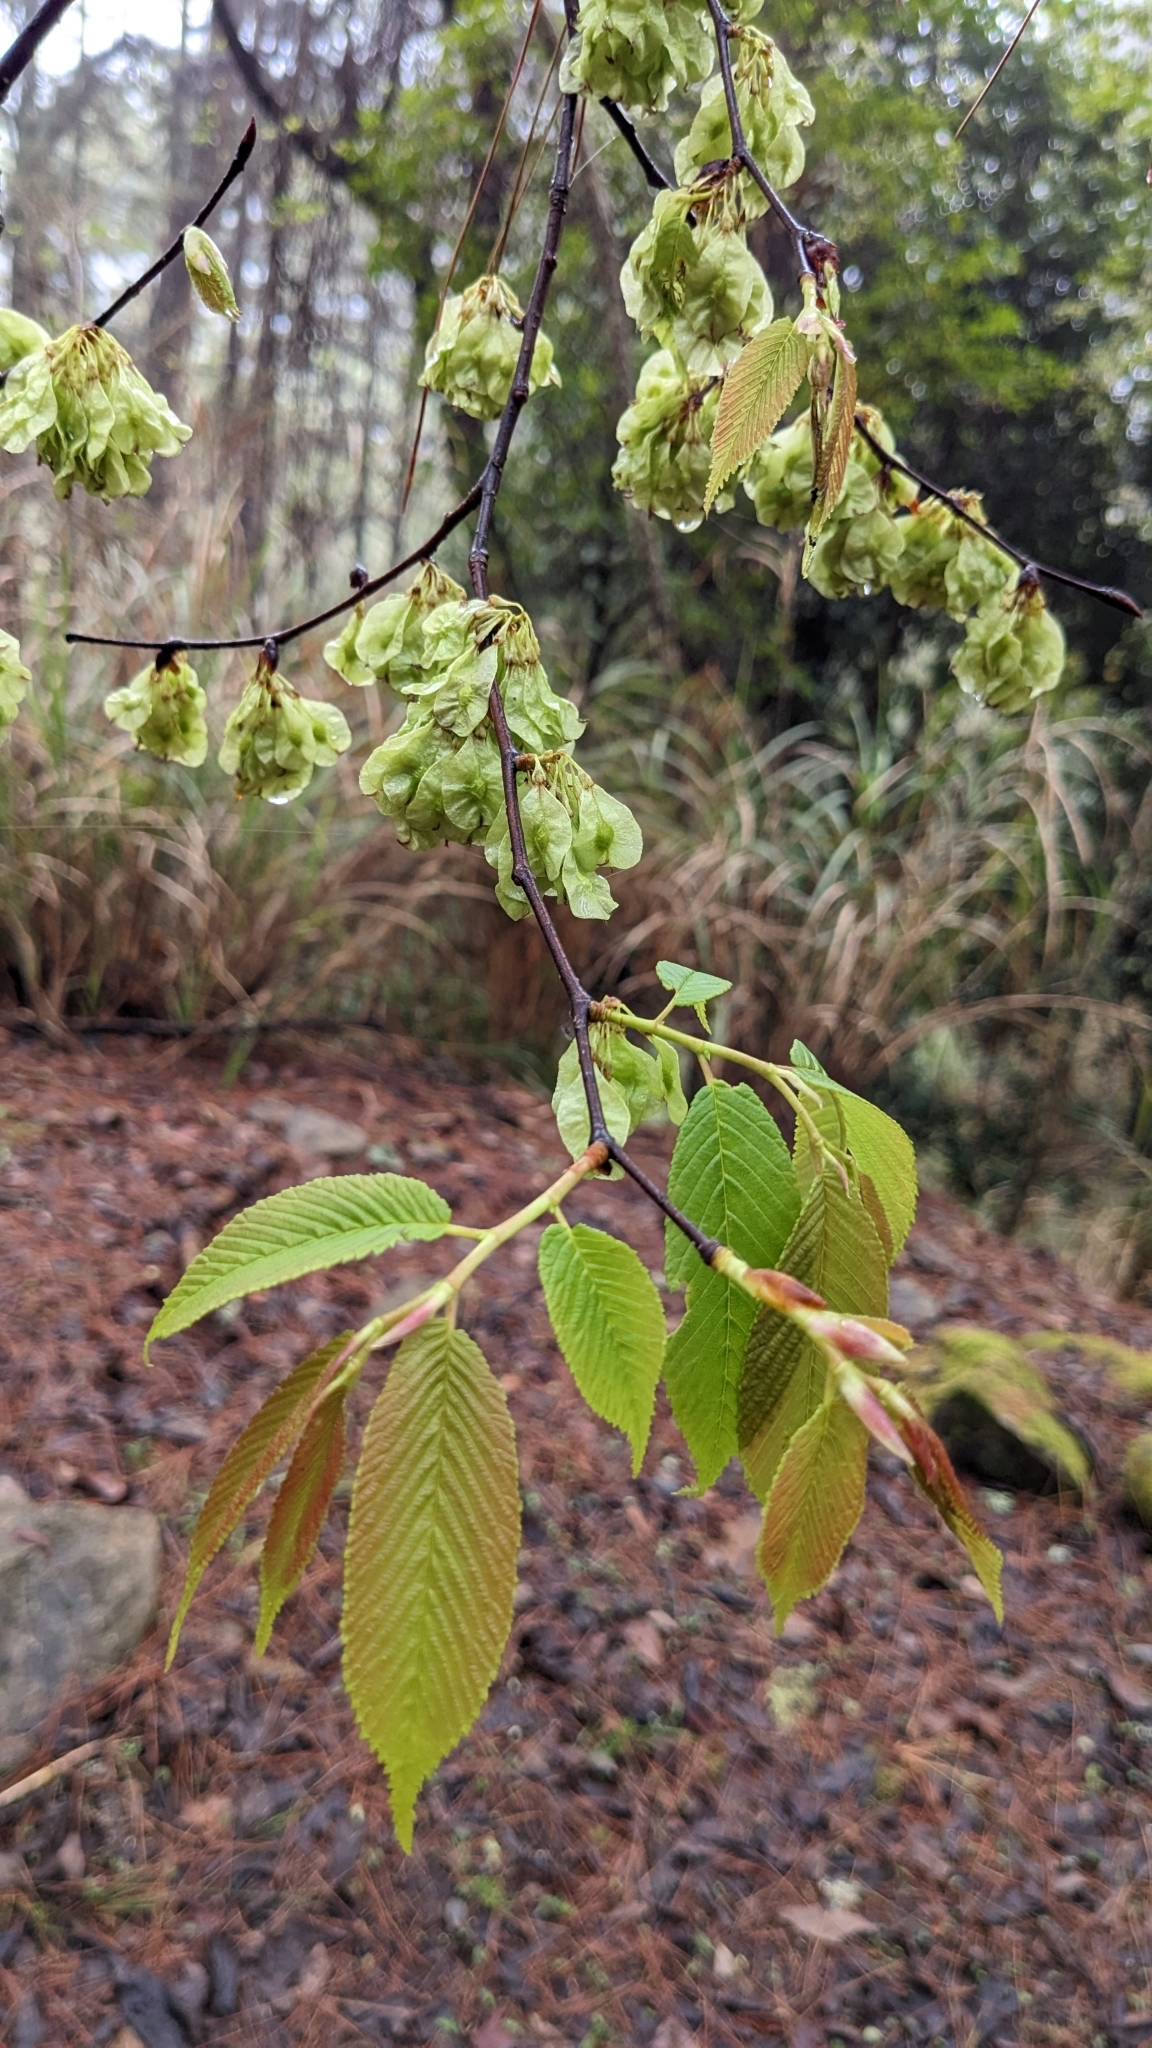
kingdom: Plantae
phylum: Tracheophyta
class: Magnoliopsida
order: Rosales
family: Ulmaceae
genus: Ulmus
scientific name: Ulmus uyematsui
